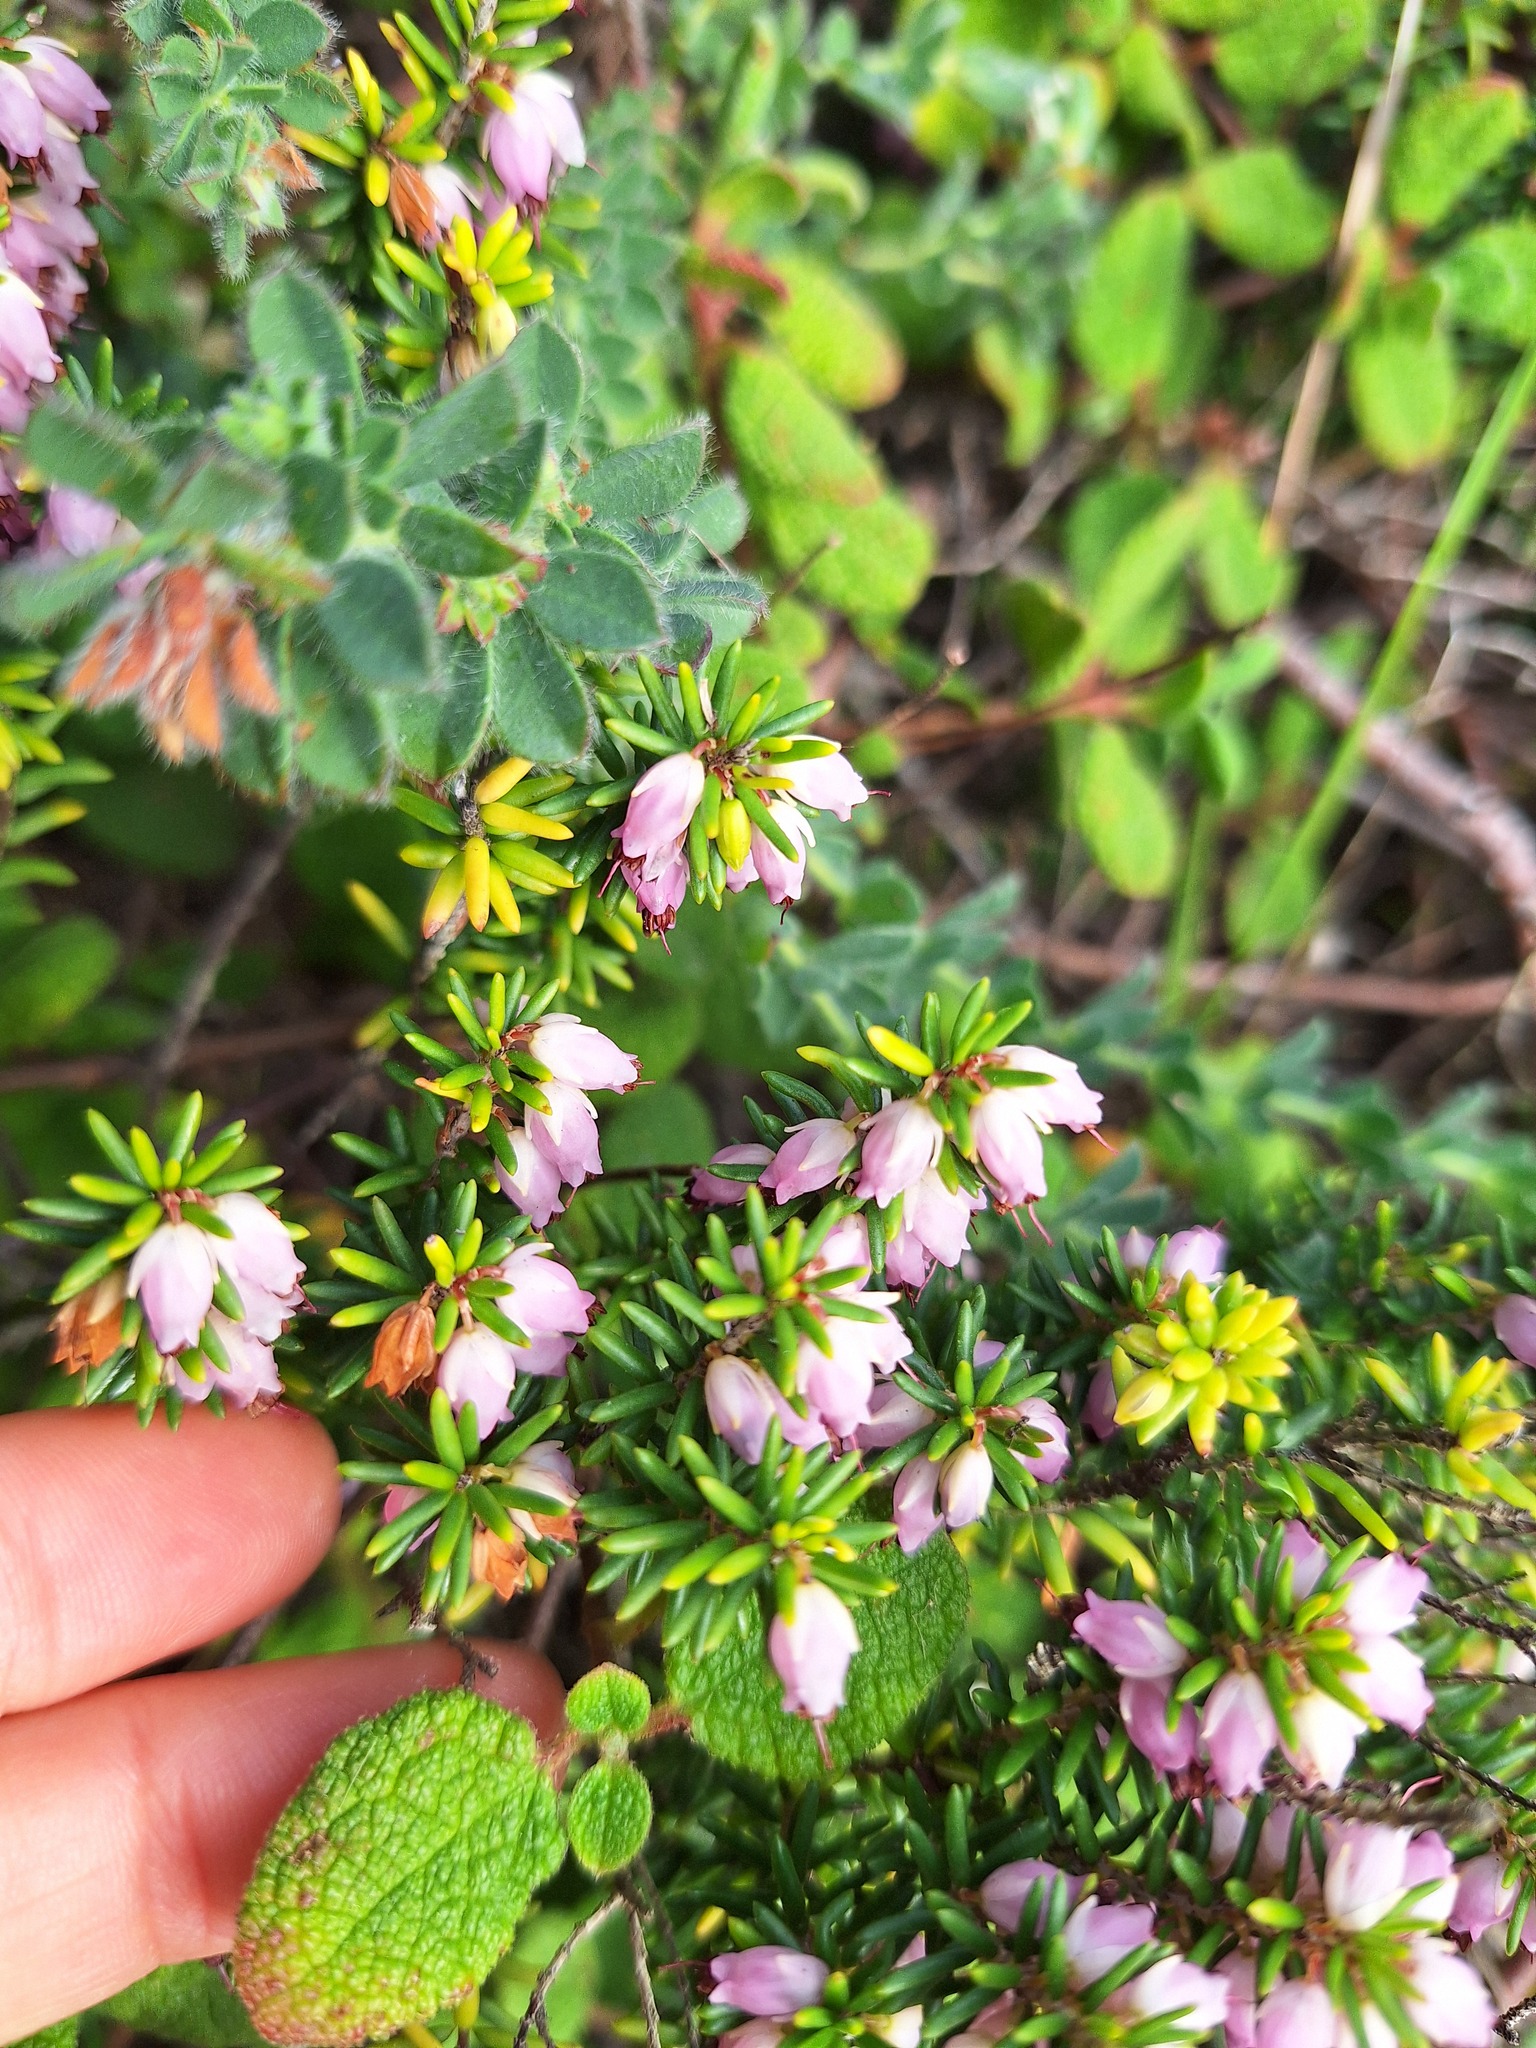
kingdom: Plantae
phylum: Tracheophyta
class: Magnoliopsida
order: Ericales
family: Ericaceae
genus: Erica
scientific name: Erica erigena
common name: Irish heath
